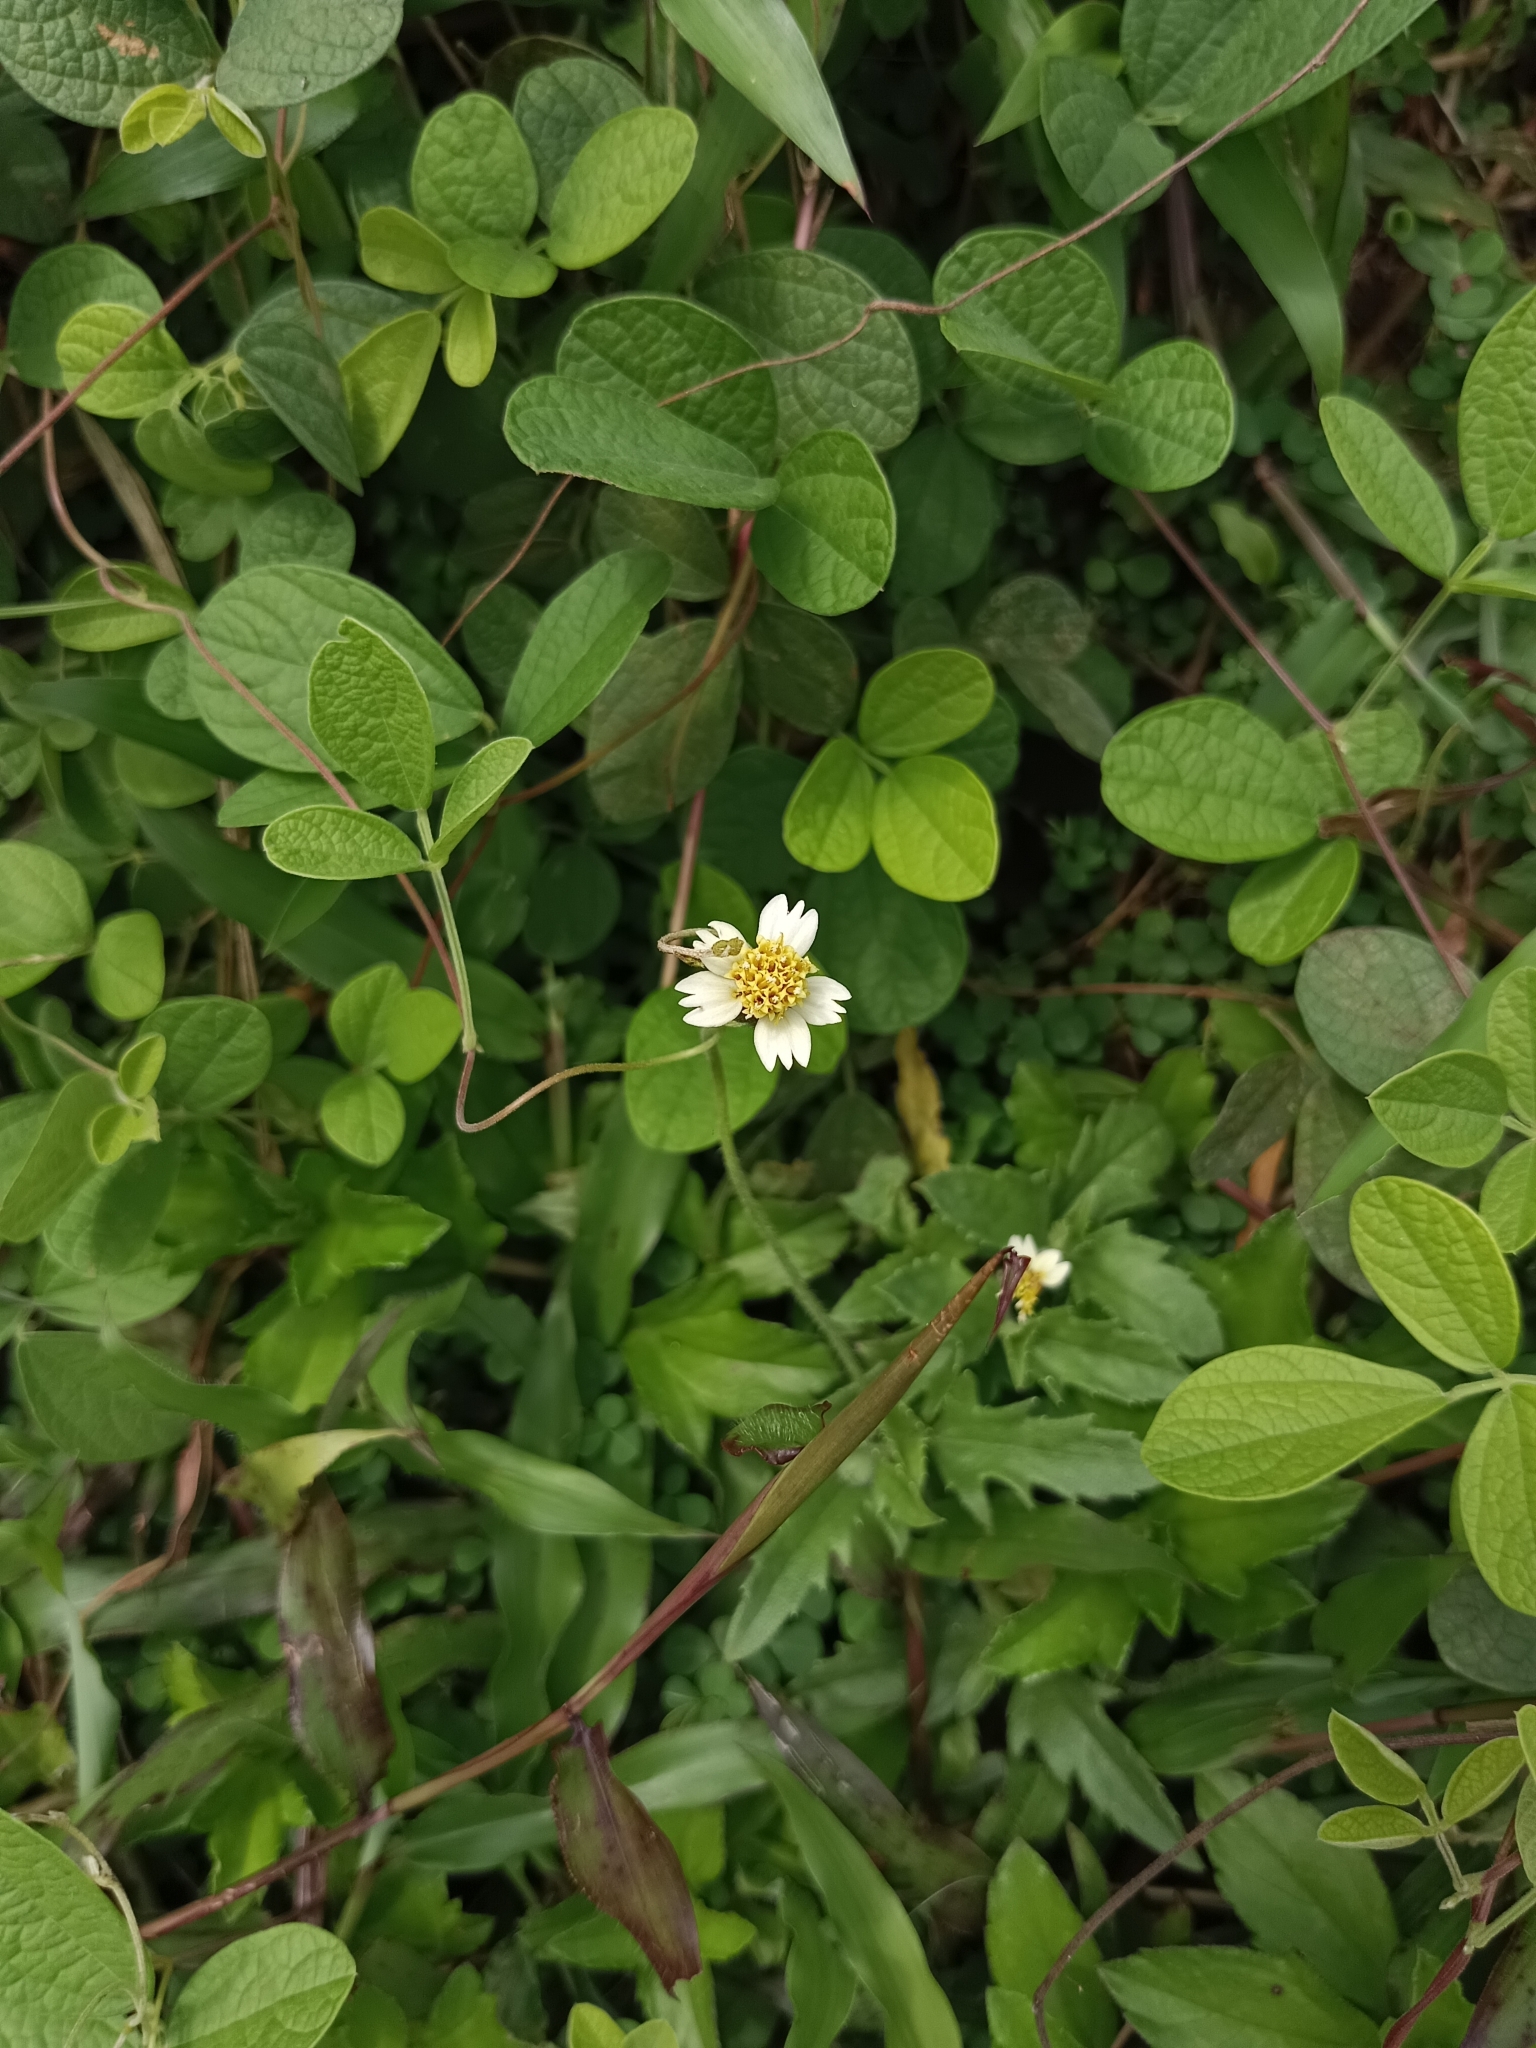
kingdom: Plantae
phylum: Tracheophyta
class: Magnoliopsida
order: Asterales
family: Asteraceae
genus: Tridax
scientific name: Tridax procumbens
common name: Coatbuttons
